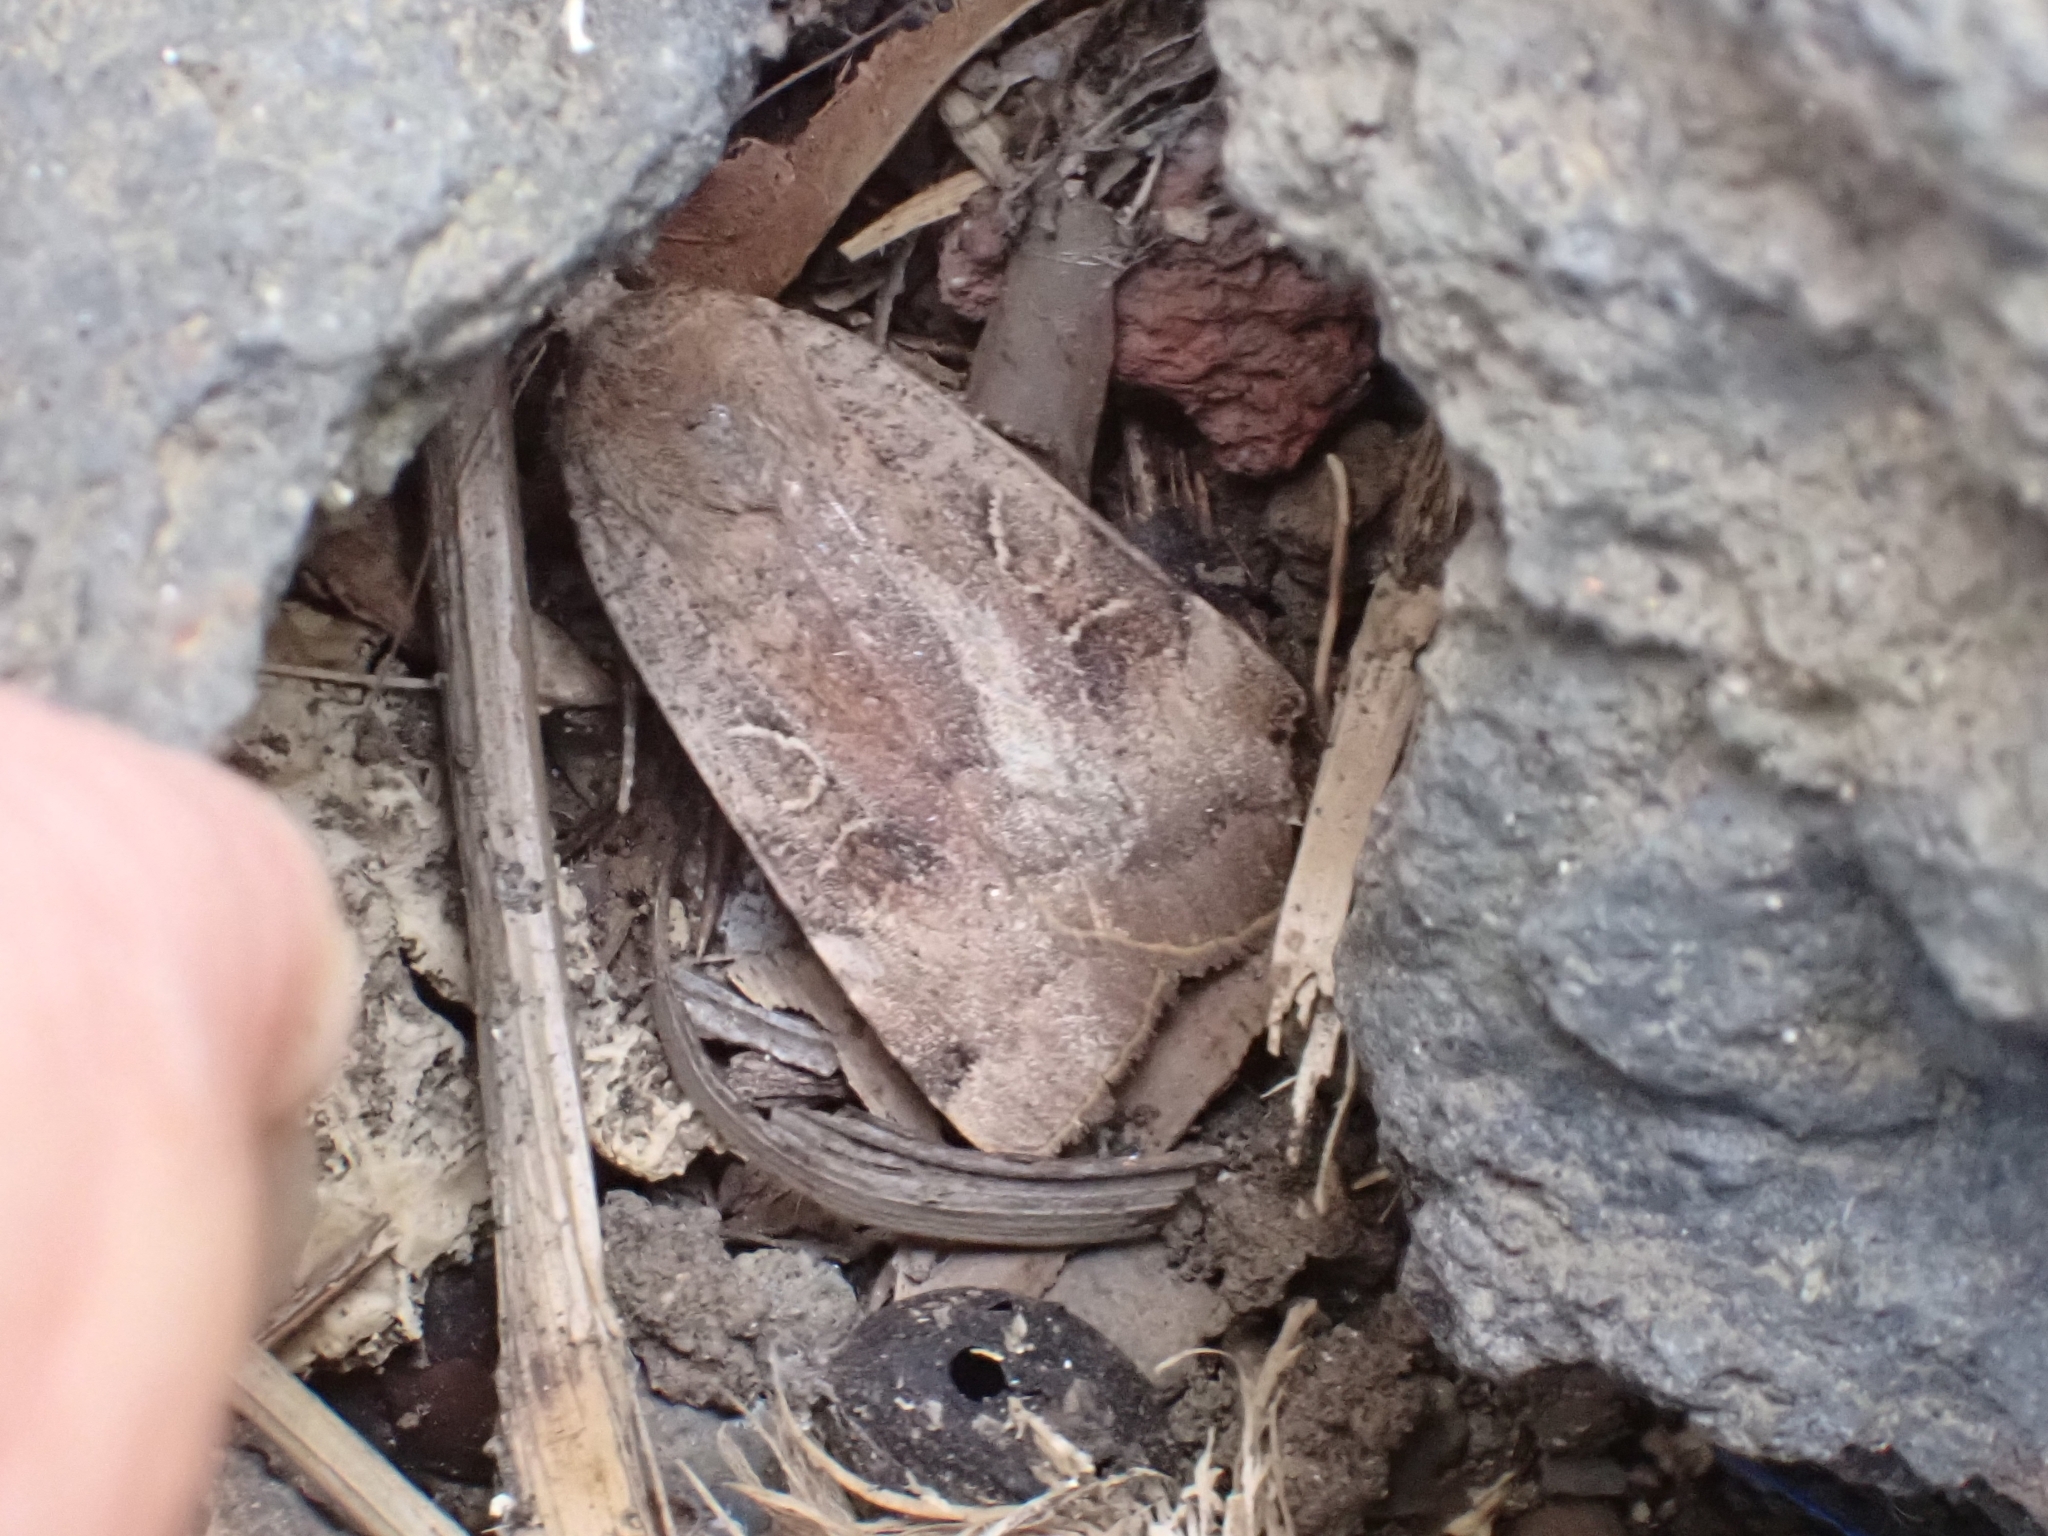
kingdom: Animalia
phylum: Arthropoda
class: Insecta
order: Lepidoptera
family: Noctuidae
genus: Noctua
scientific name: Noctua noacki
